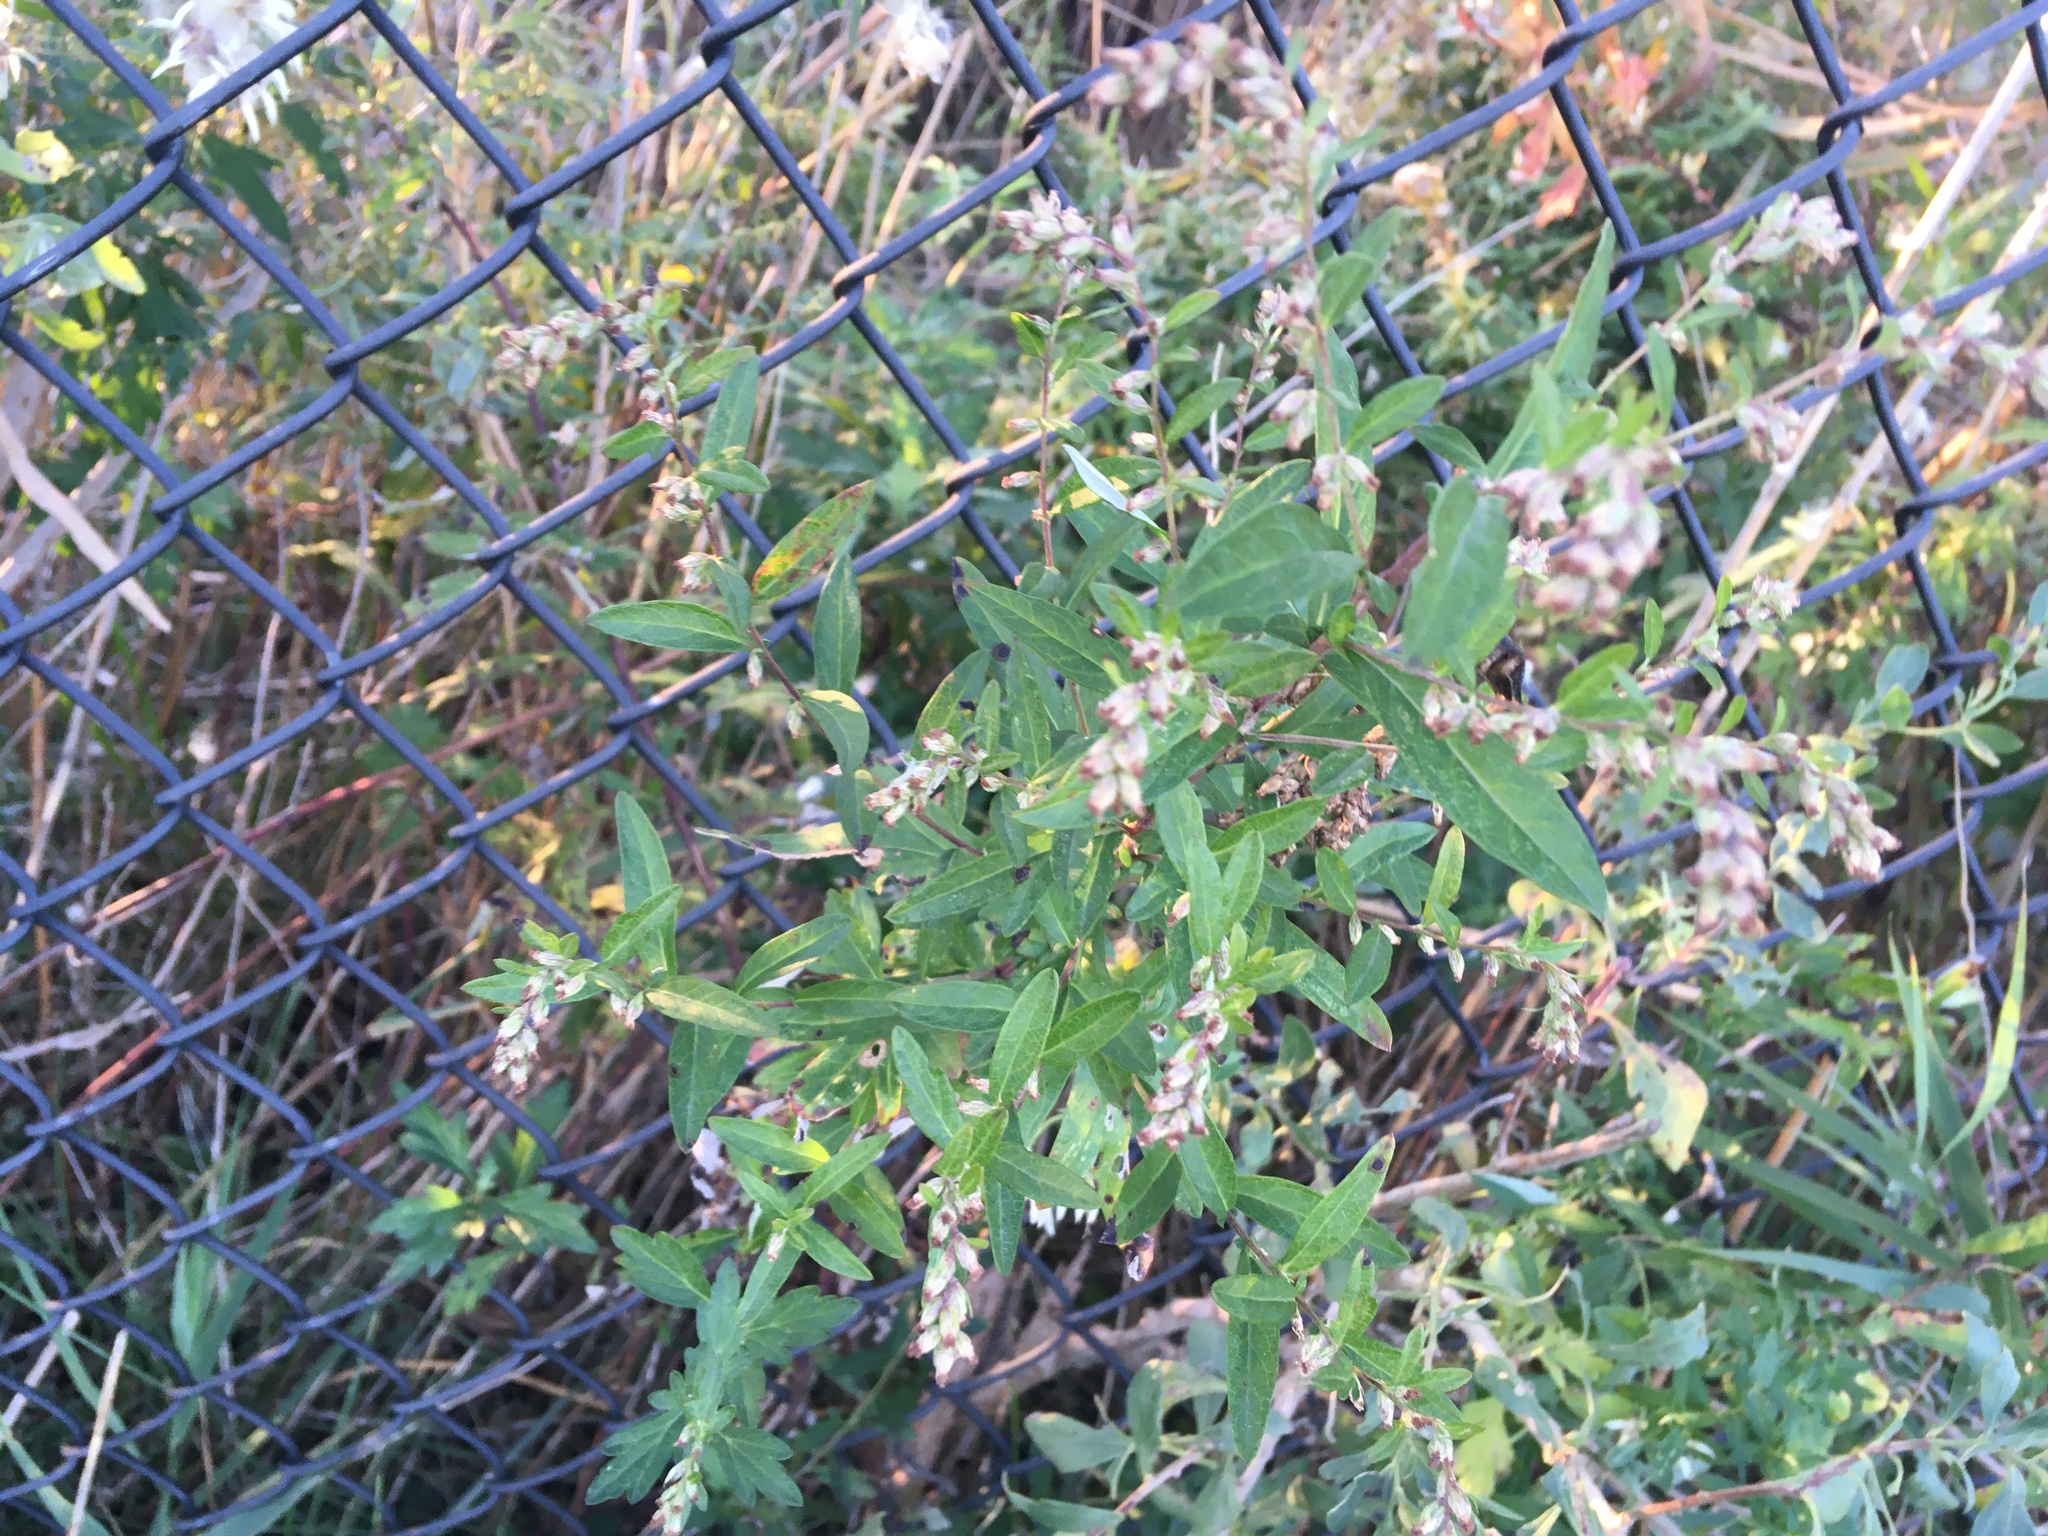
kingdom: Plantae
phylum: Tracheophyta
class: Magnoliopsida
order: Asterales
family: Asteraceae
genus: Artemisia
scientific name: Artemisia vulgaris
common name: Mugwort
